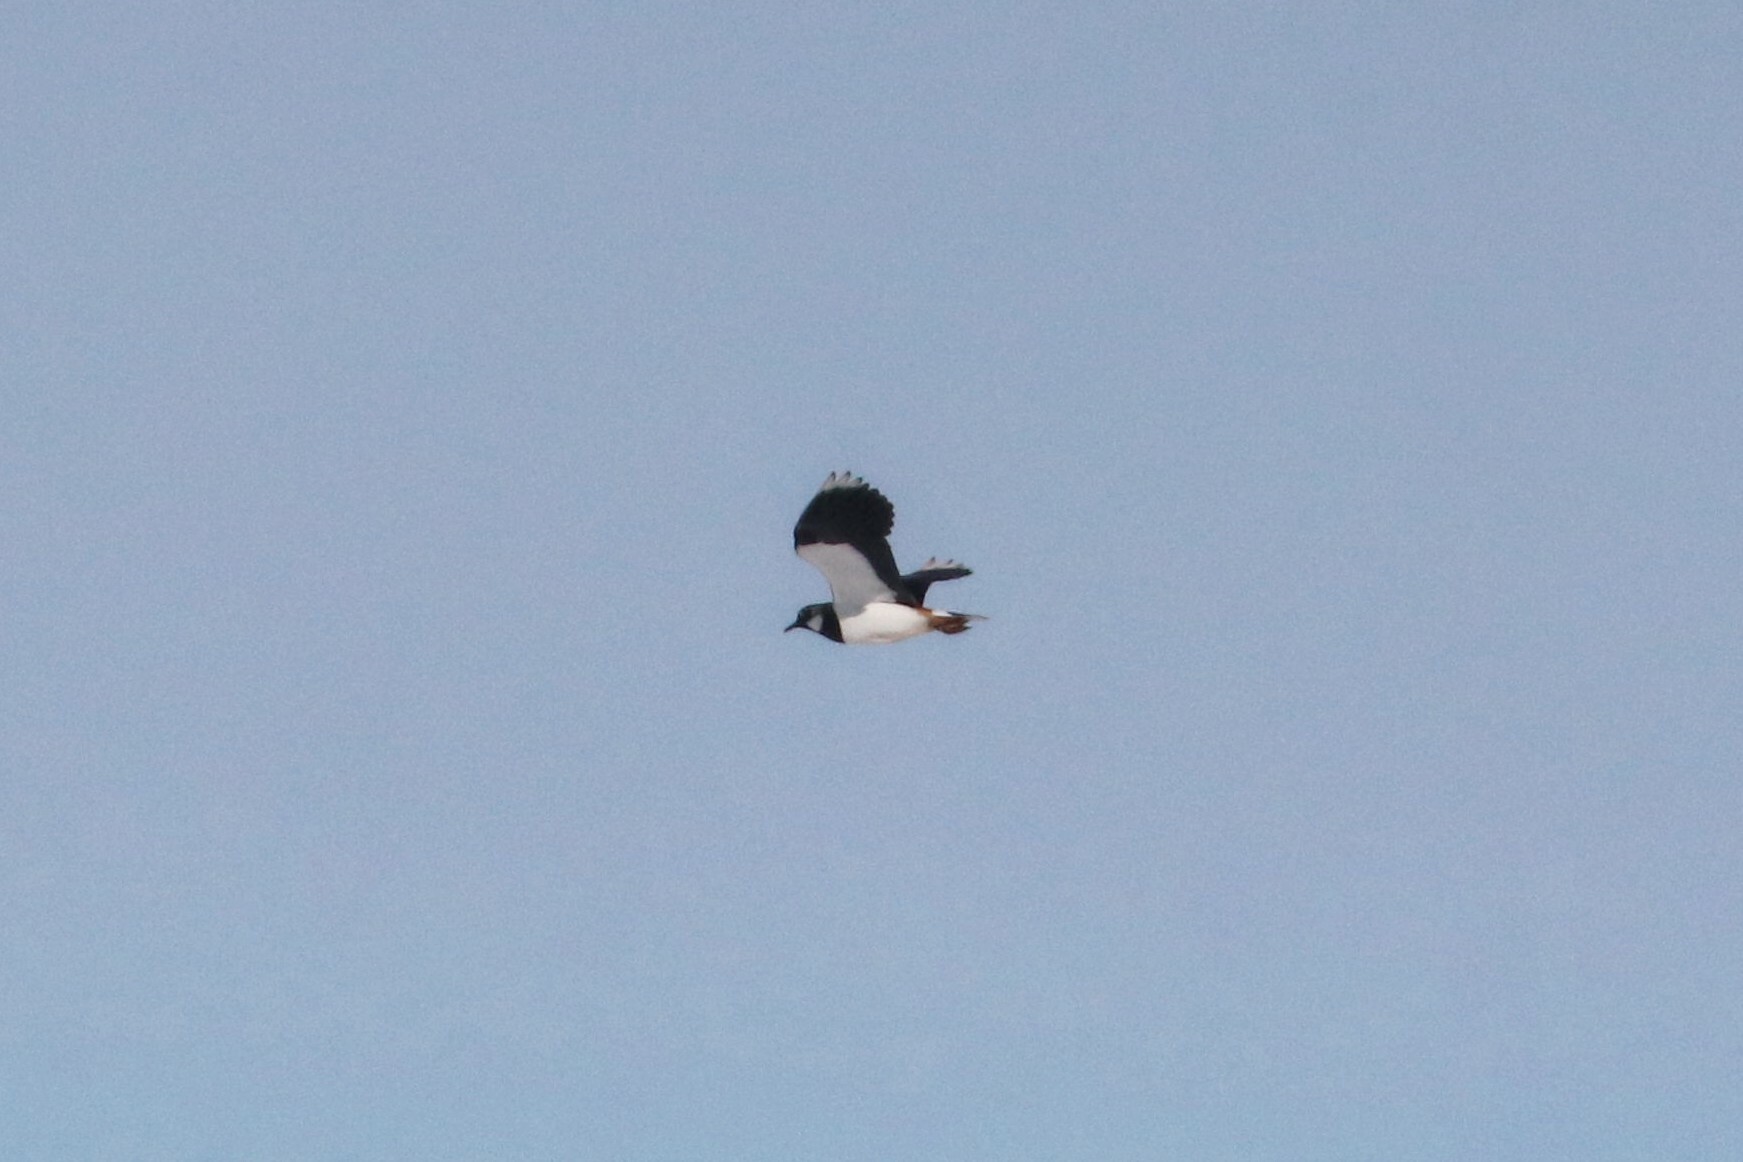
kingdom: Animalia
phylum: Chordata
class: Aves
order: Charadriiformes
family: Charadriidae
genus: Vanellus
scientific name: Vanellus vanellus
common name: Northern lapwing
